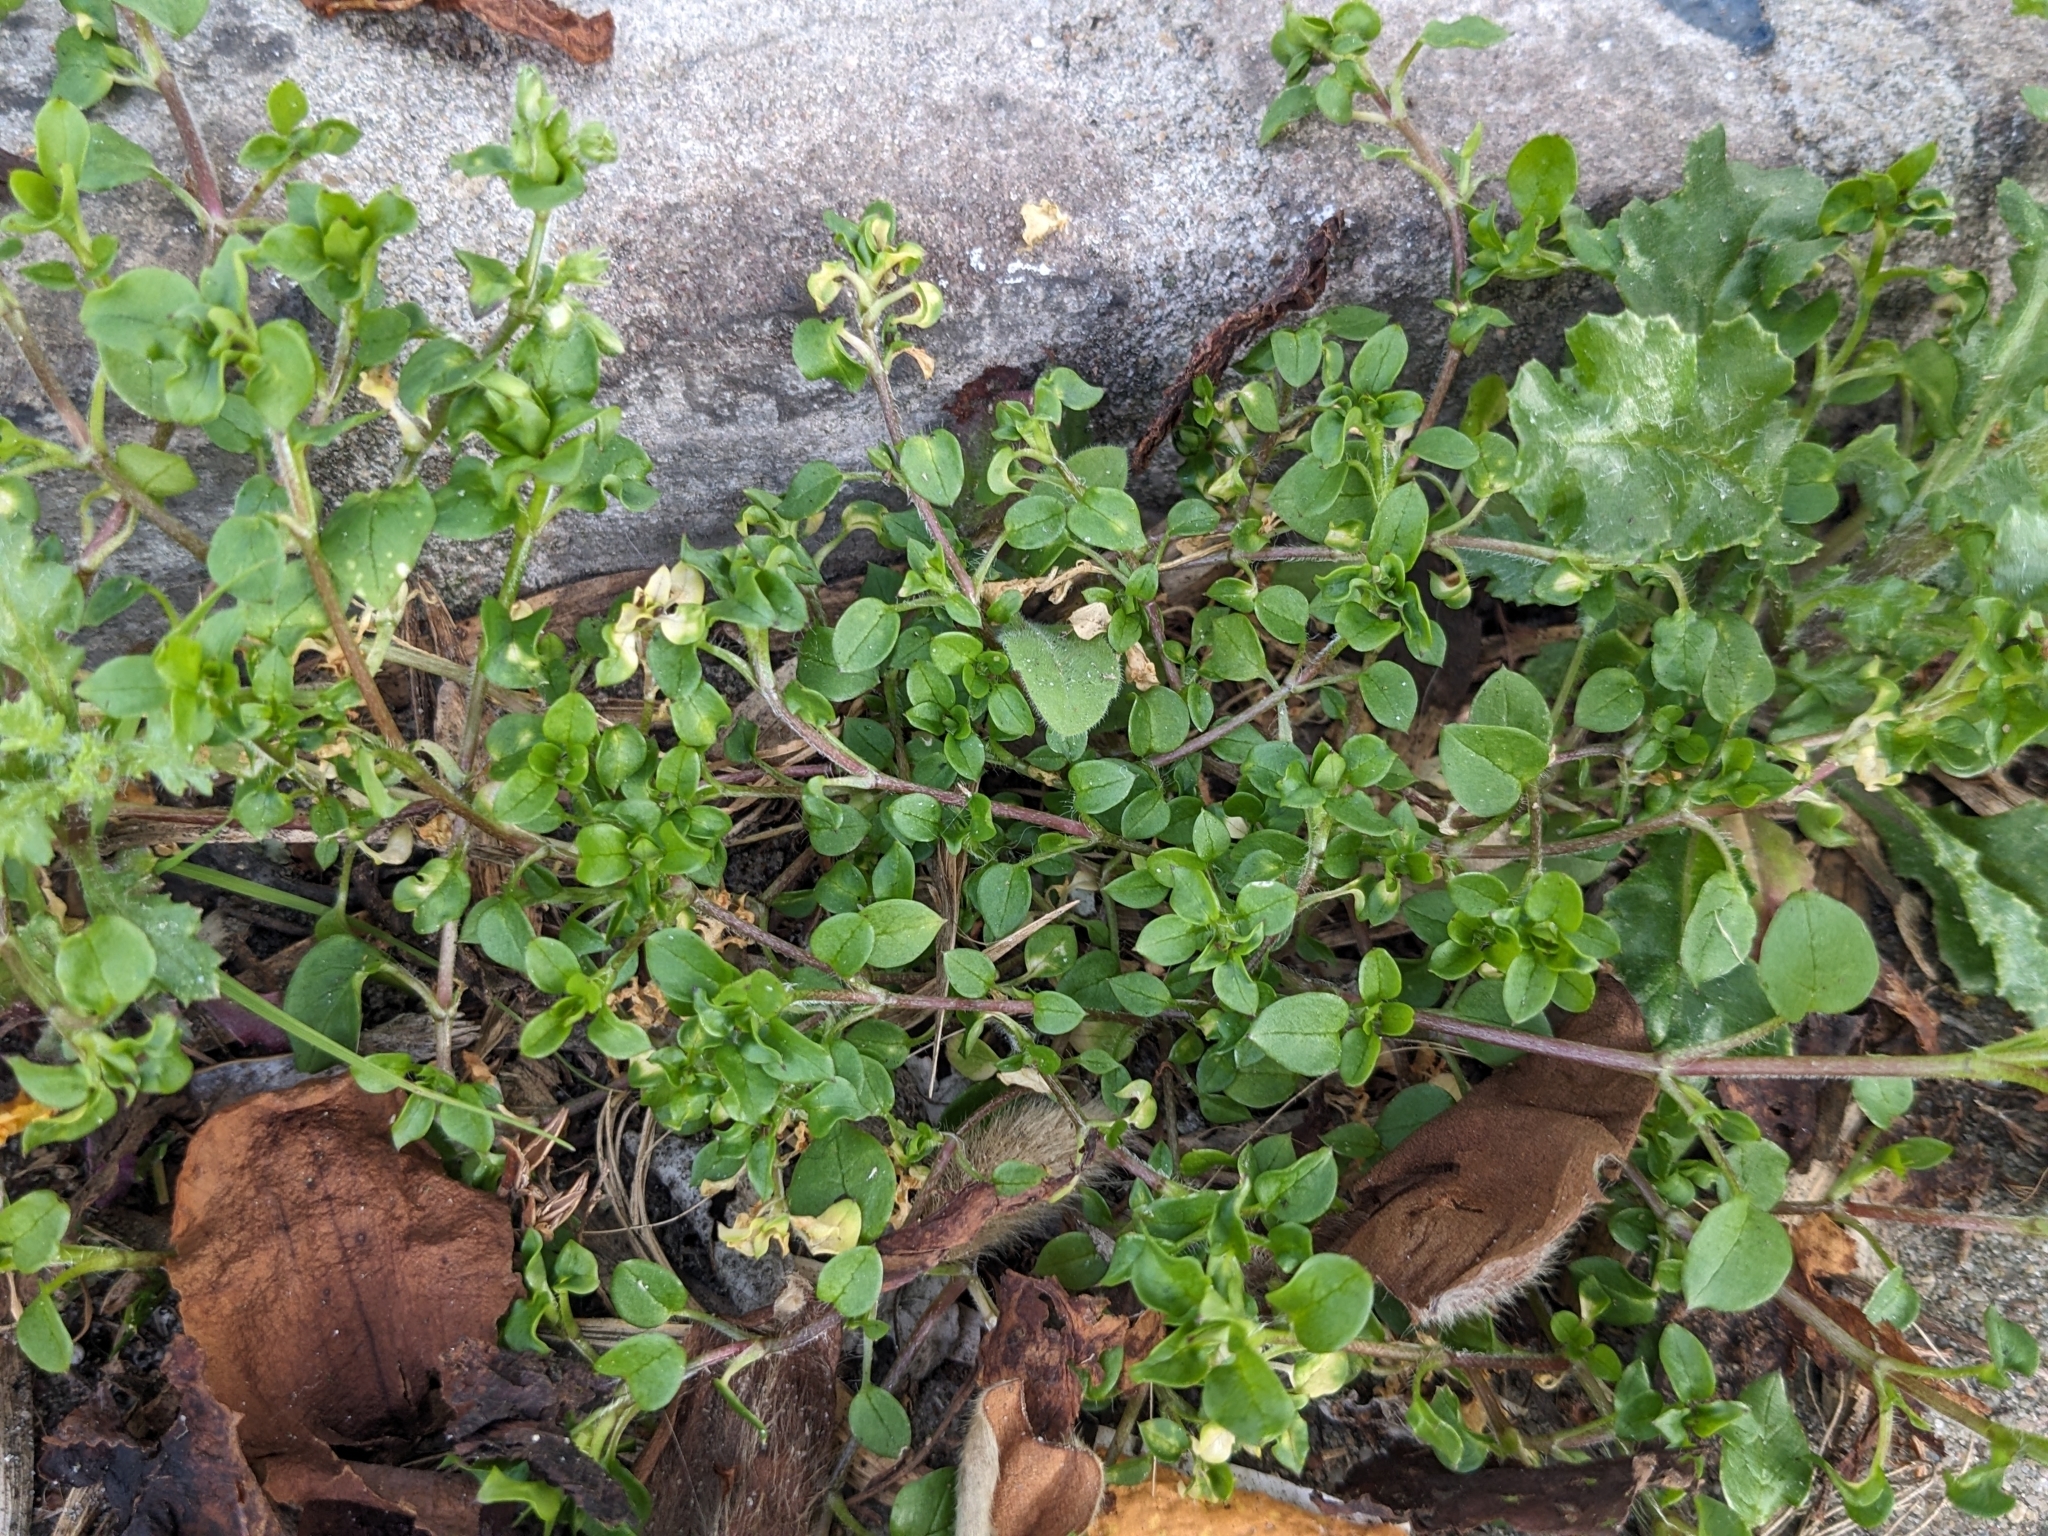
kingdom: Plantae
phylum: Tracheophyta
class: Magnoliopsida
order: Caryophyllales
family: Caryophyllaceae
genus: Stellaria
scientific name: Stellaria media
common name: Common chickweed
